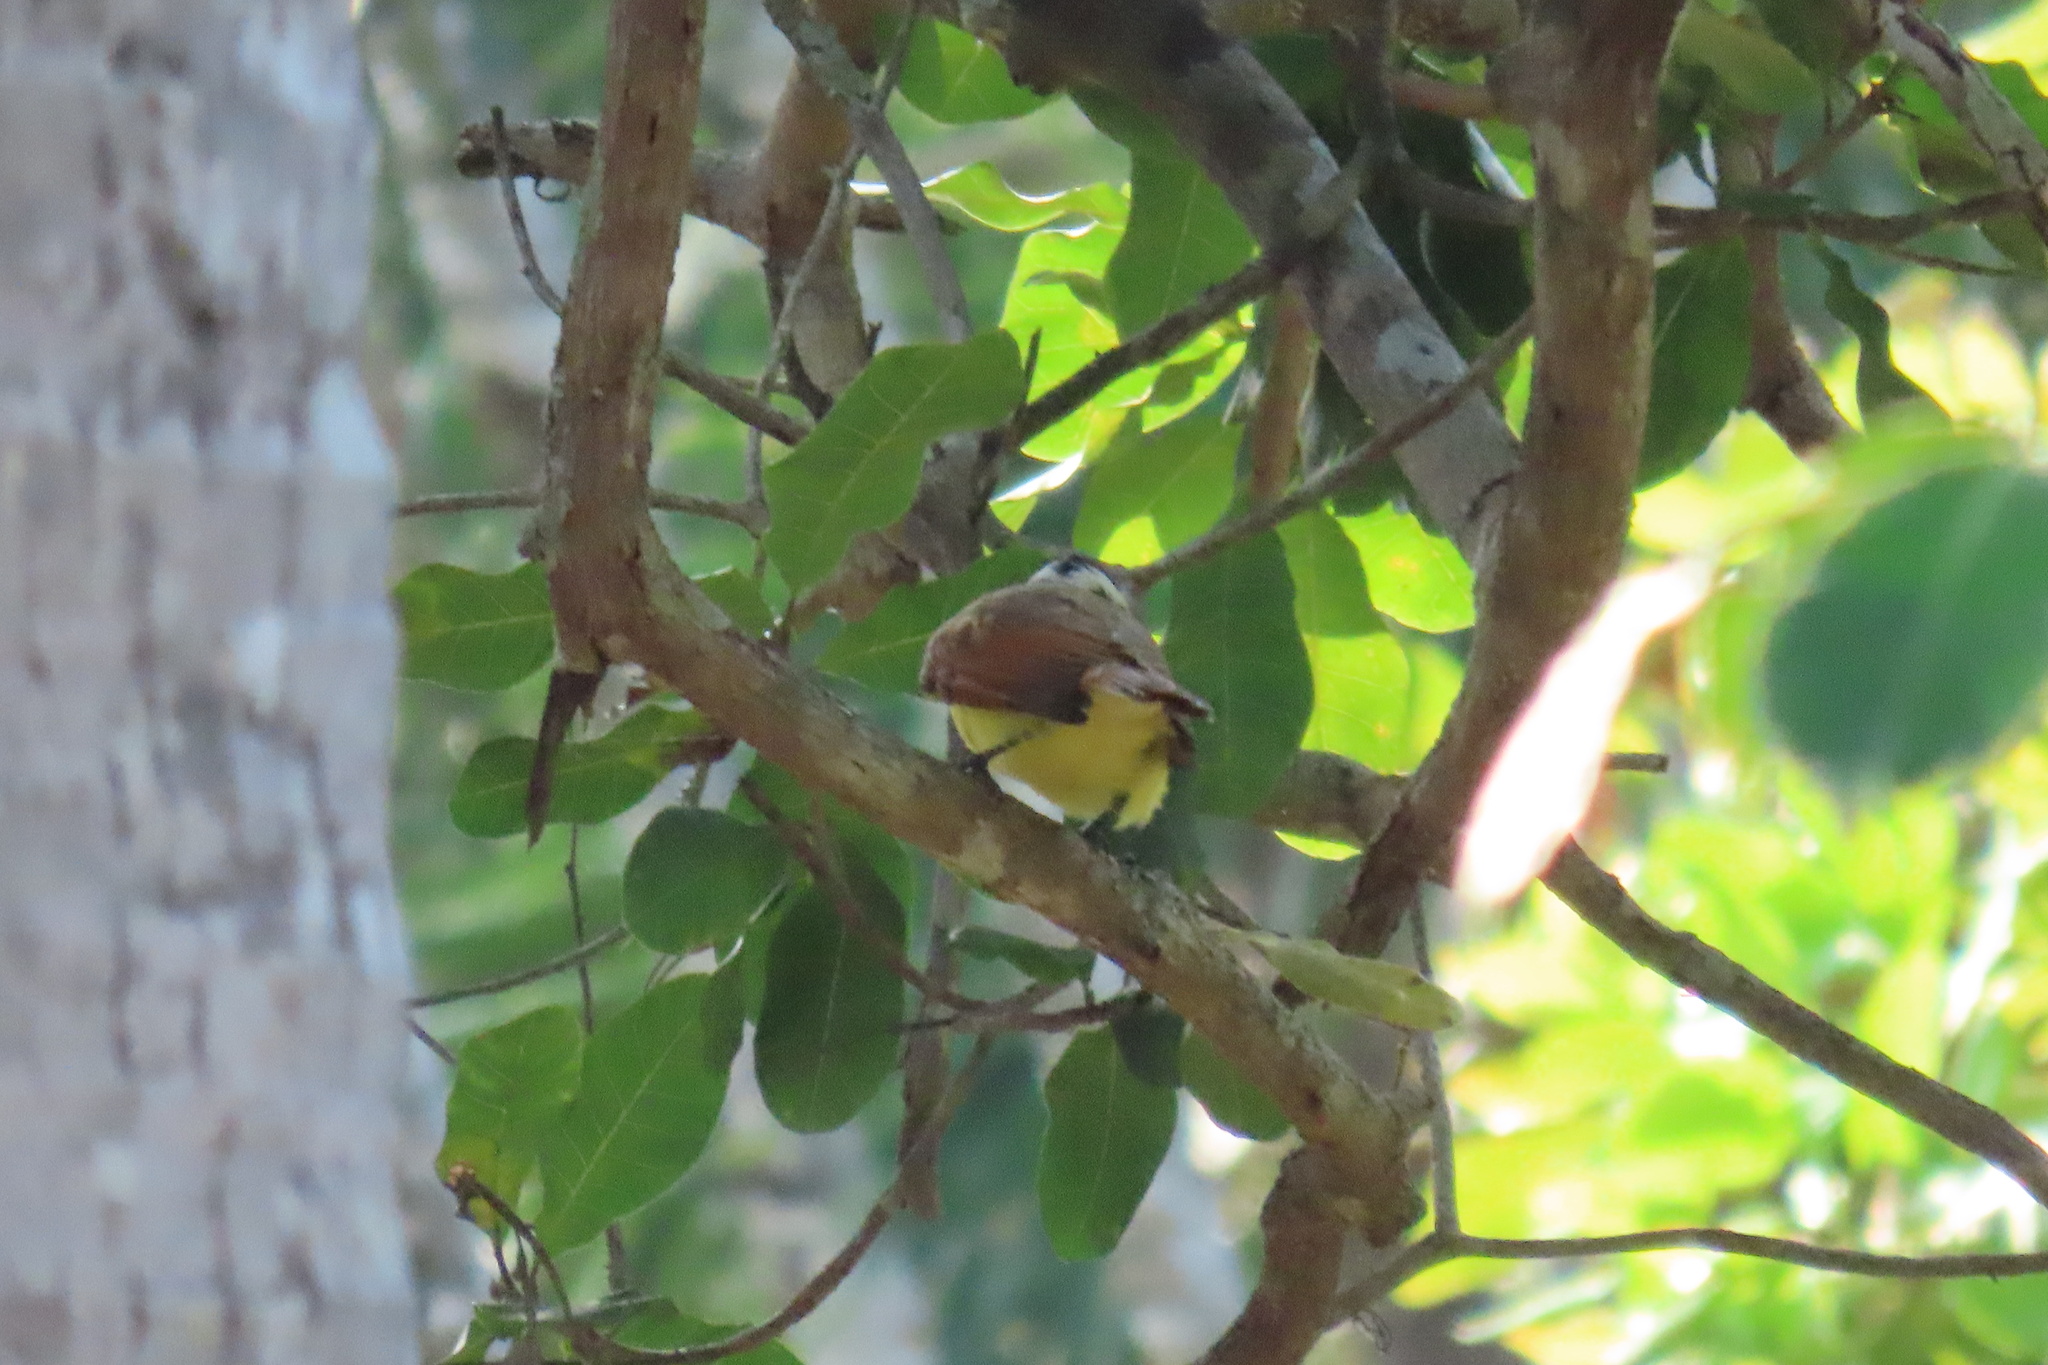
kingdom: Animalia
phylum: Chordata
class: Aves
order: Passeriformes
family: Tyrannidae
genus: Pitangus
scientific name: Pitangus sulphuratus
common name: Great kiskadee
